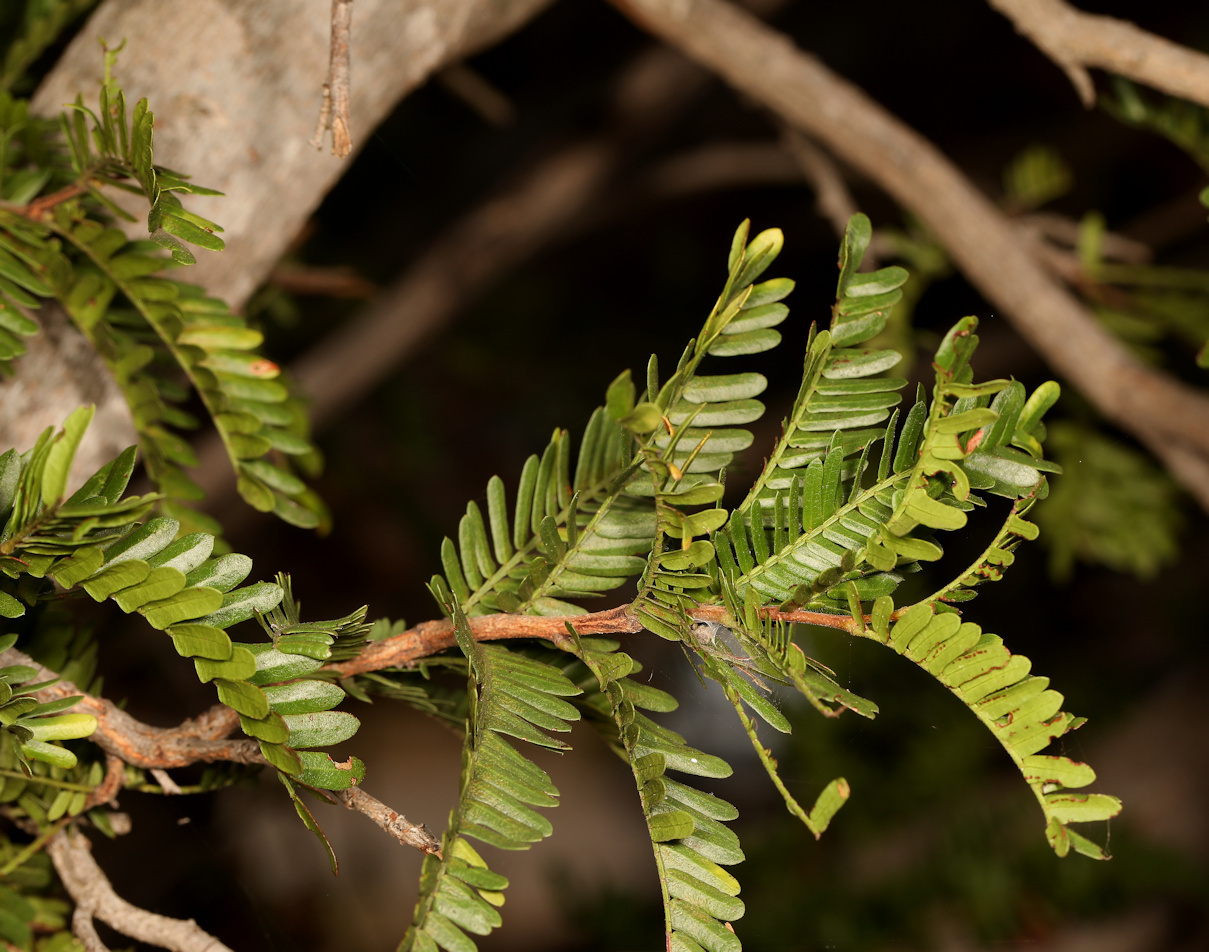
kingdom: Plantae
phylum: Tracheophyta
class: Magnoliopsida
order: Fabales
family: Fabaceae
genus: Schotia
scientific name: Schotia afra
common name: Hottentot's bean
